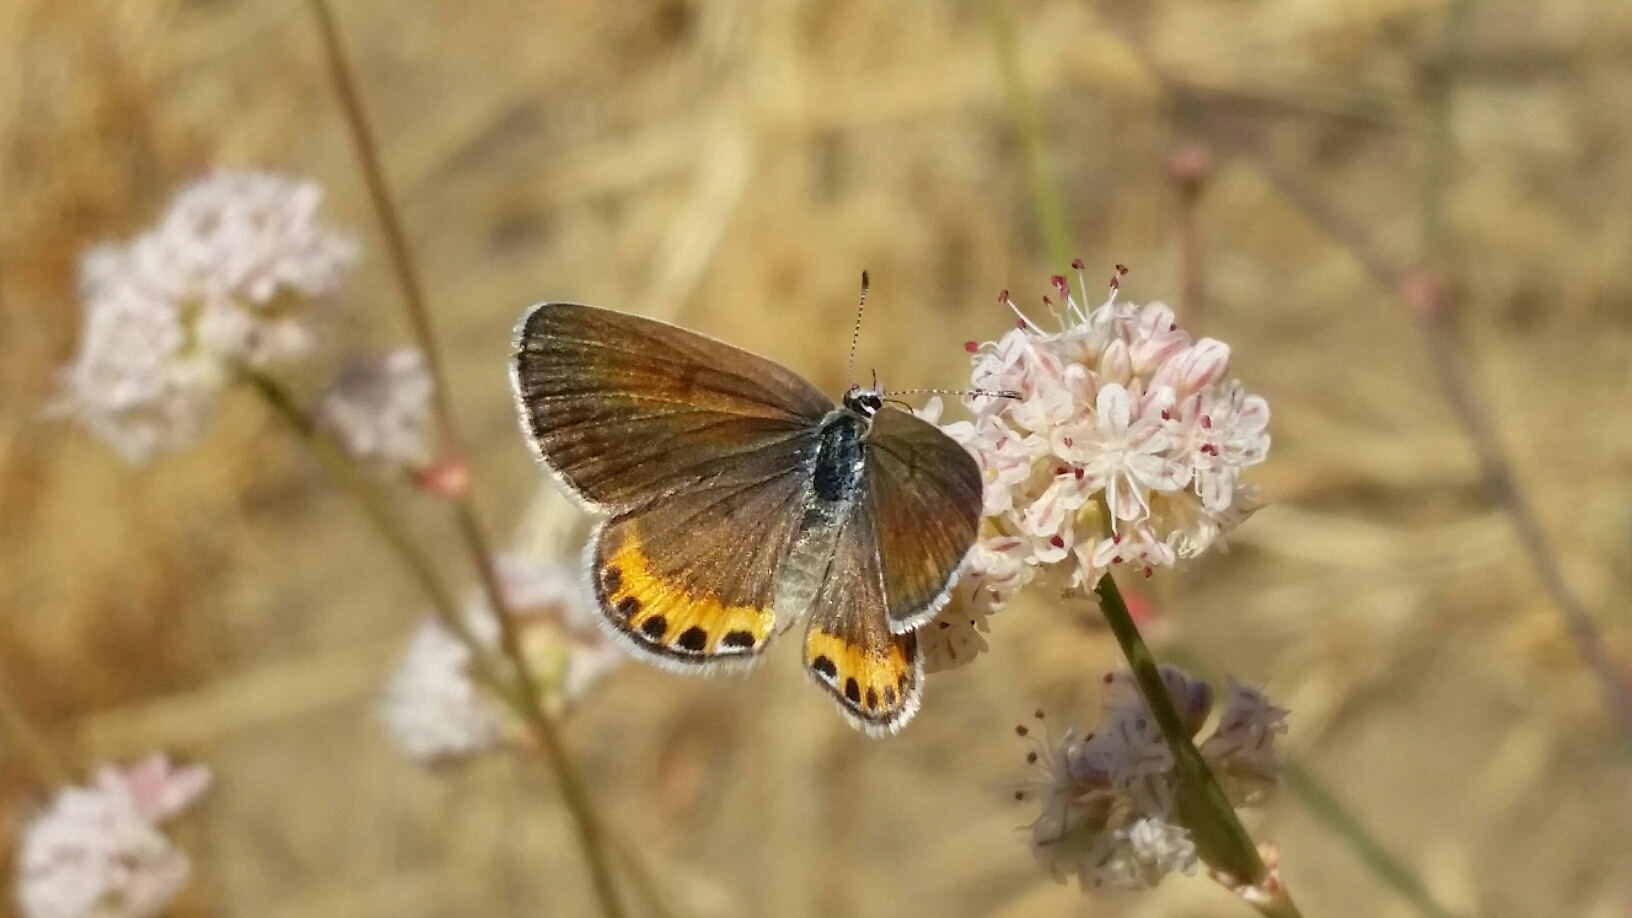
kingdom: Animalia
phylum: Arthropoda
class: Insecta
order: Lepidoptera
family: Lycaenidae
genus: Icaricia
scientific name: Icaricia acmon
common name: Acmon blue
